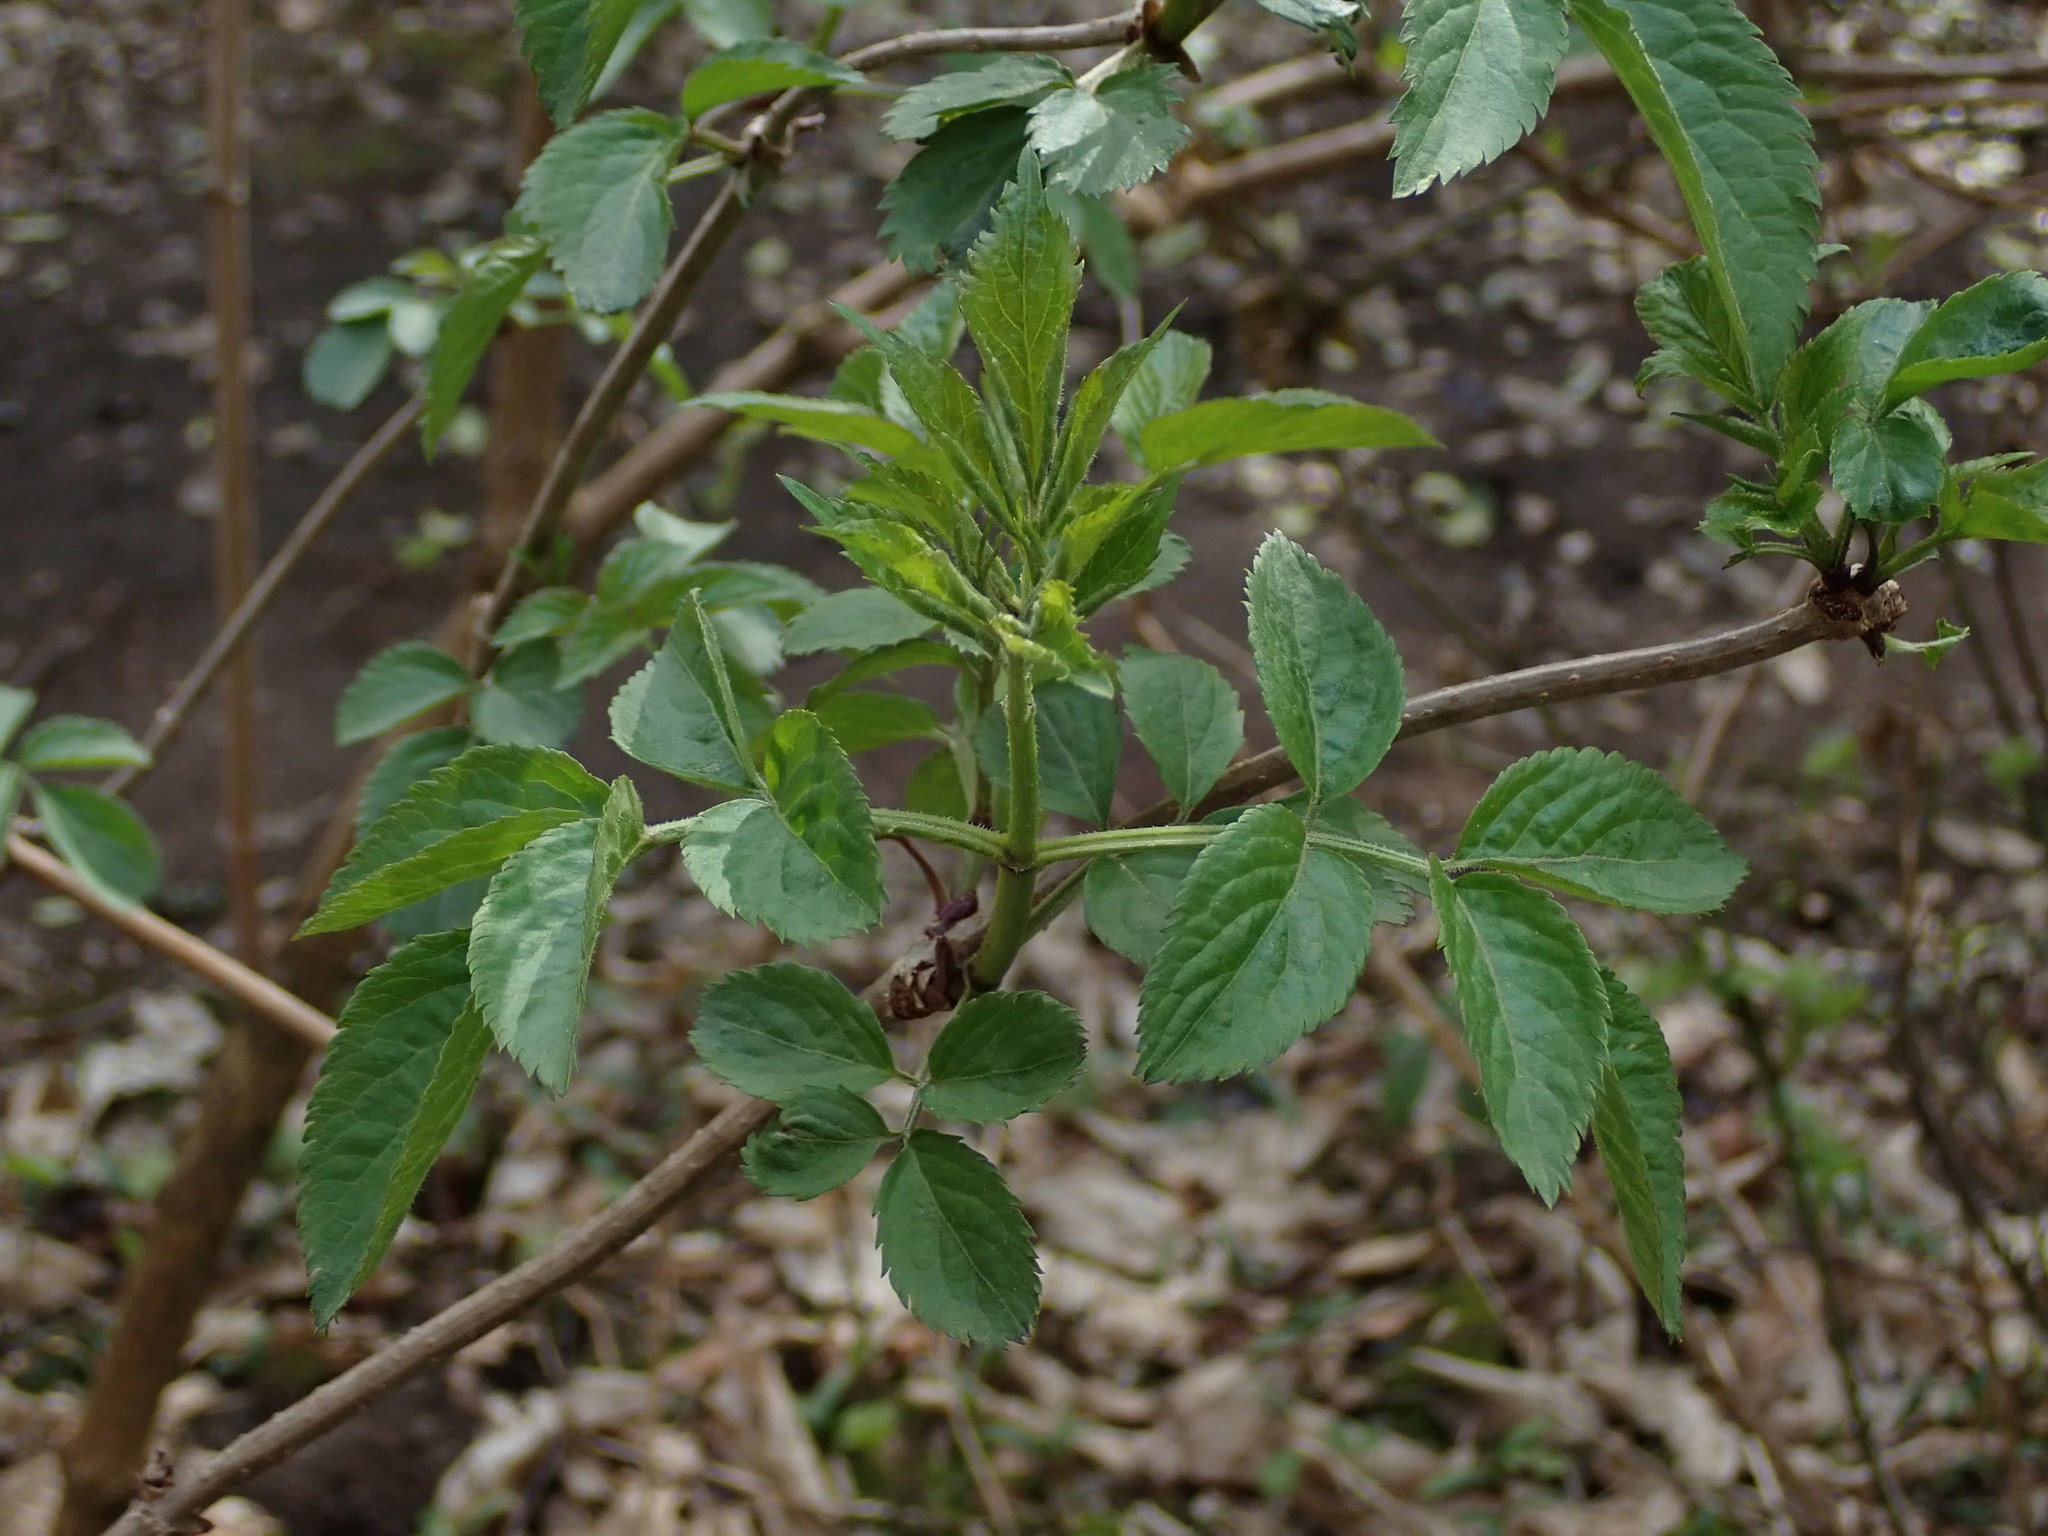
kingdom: Plantae
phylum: Tracheophyta
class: Magnoliopsida
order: Dipsacales
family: Viburnaceae
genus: Sambucus
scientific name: Sambucus nigra
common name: Elder
